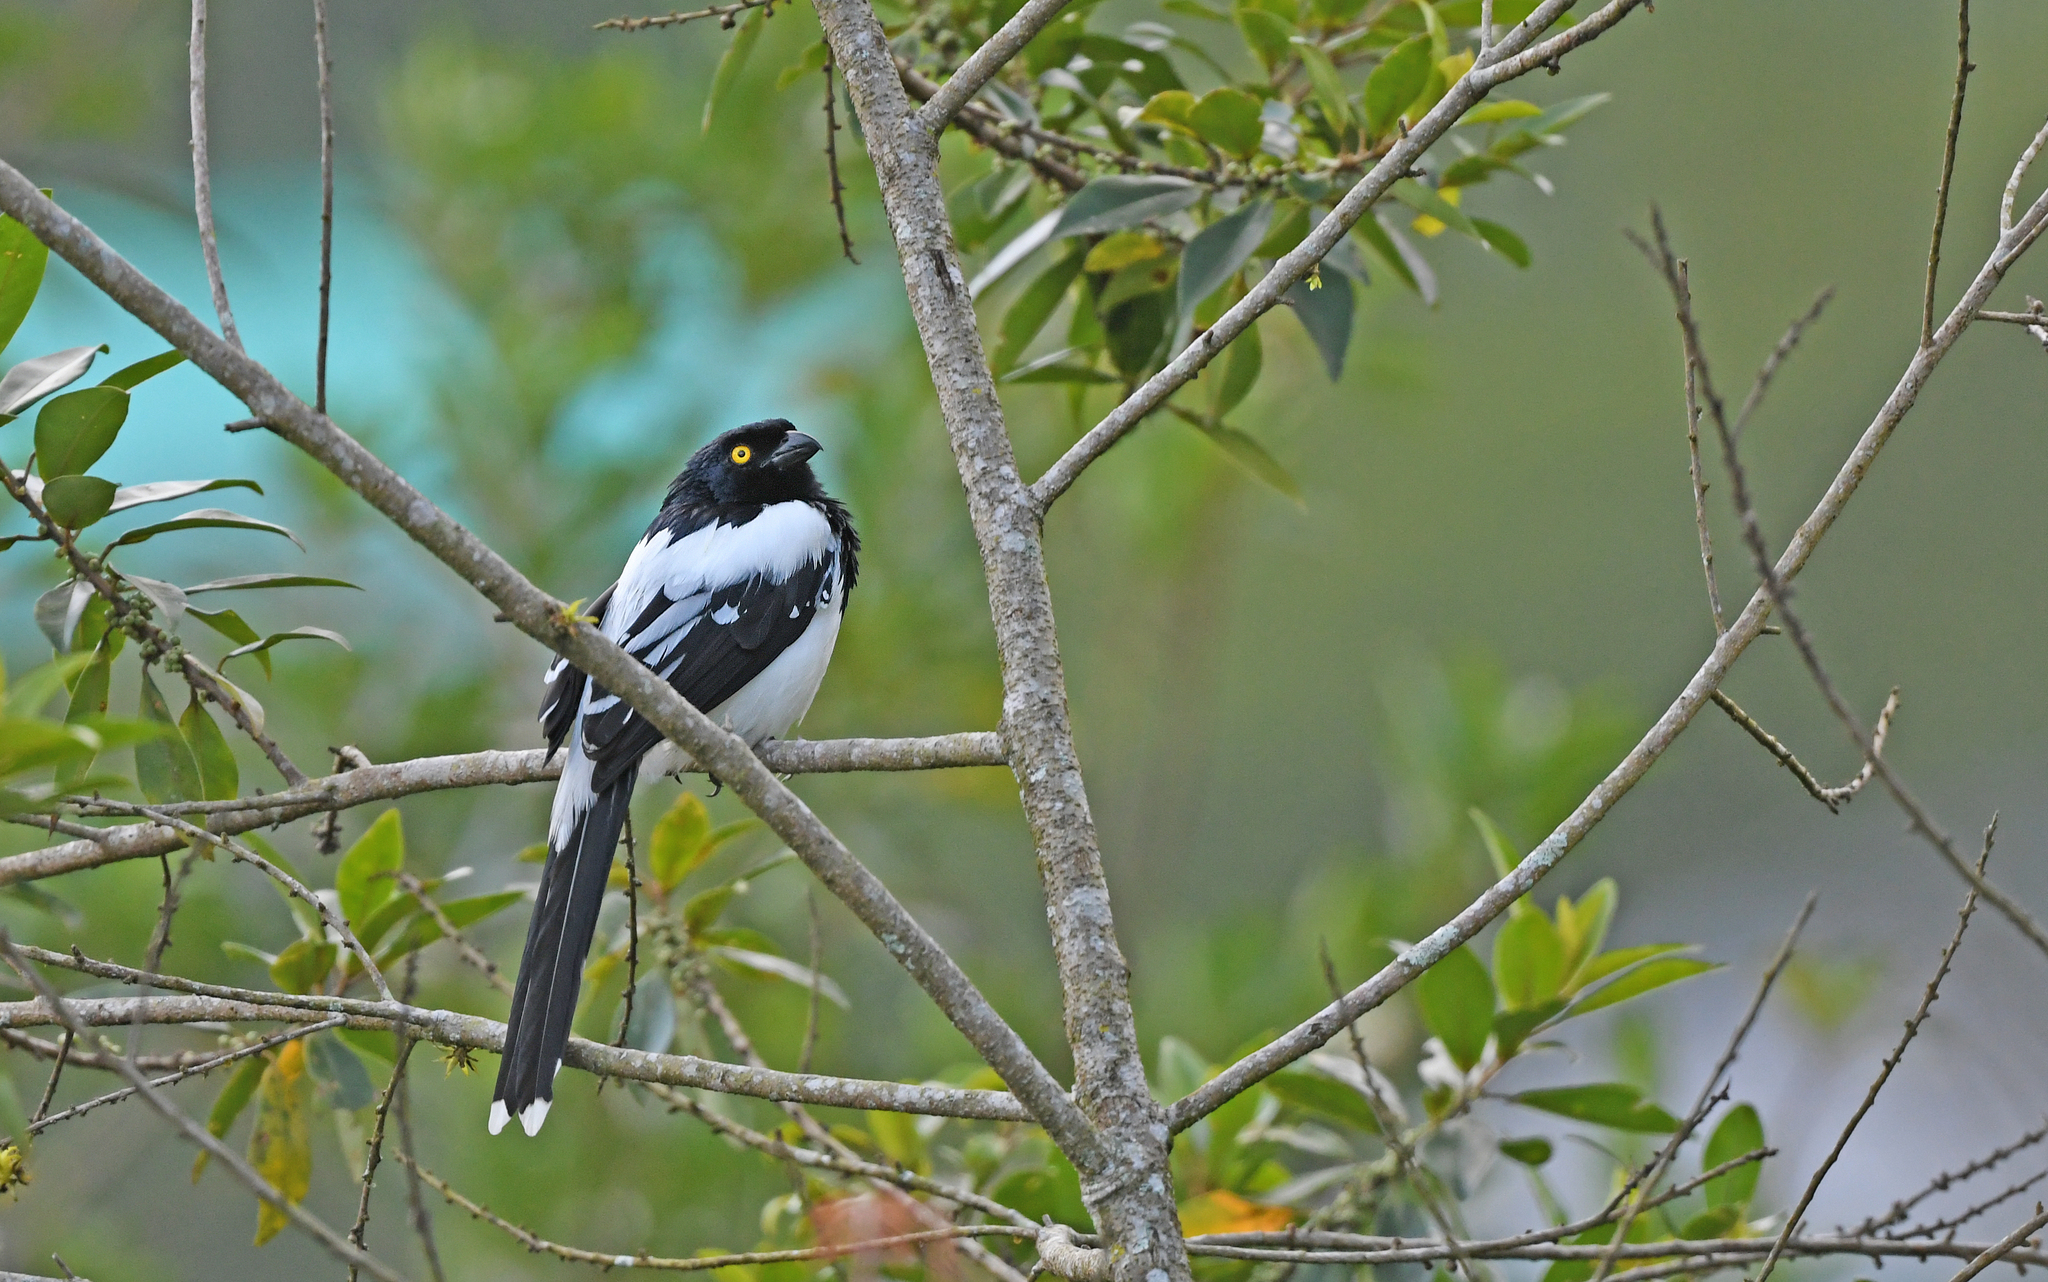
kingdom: Animalia
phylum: Chordata
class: Aves
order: Passeriformes
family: Thraupidae
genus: Cissopis
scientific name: Cissopis leverianus
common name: Magpie tanager
